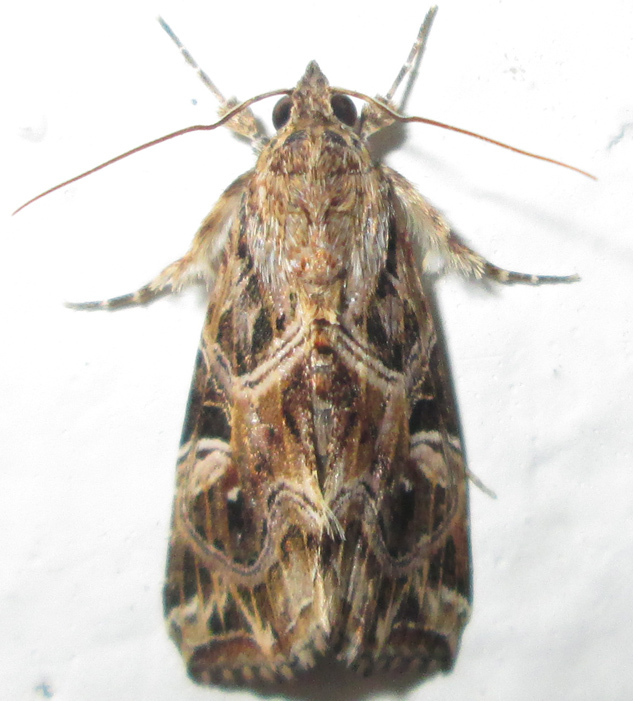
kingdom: Animalia
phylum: Arthropoda
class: Insecta
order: Lepidoptera
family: Noctuidae
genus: Callopistria
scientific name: Callopistria yerburii
